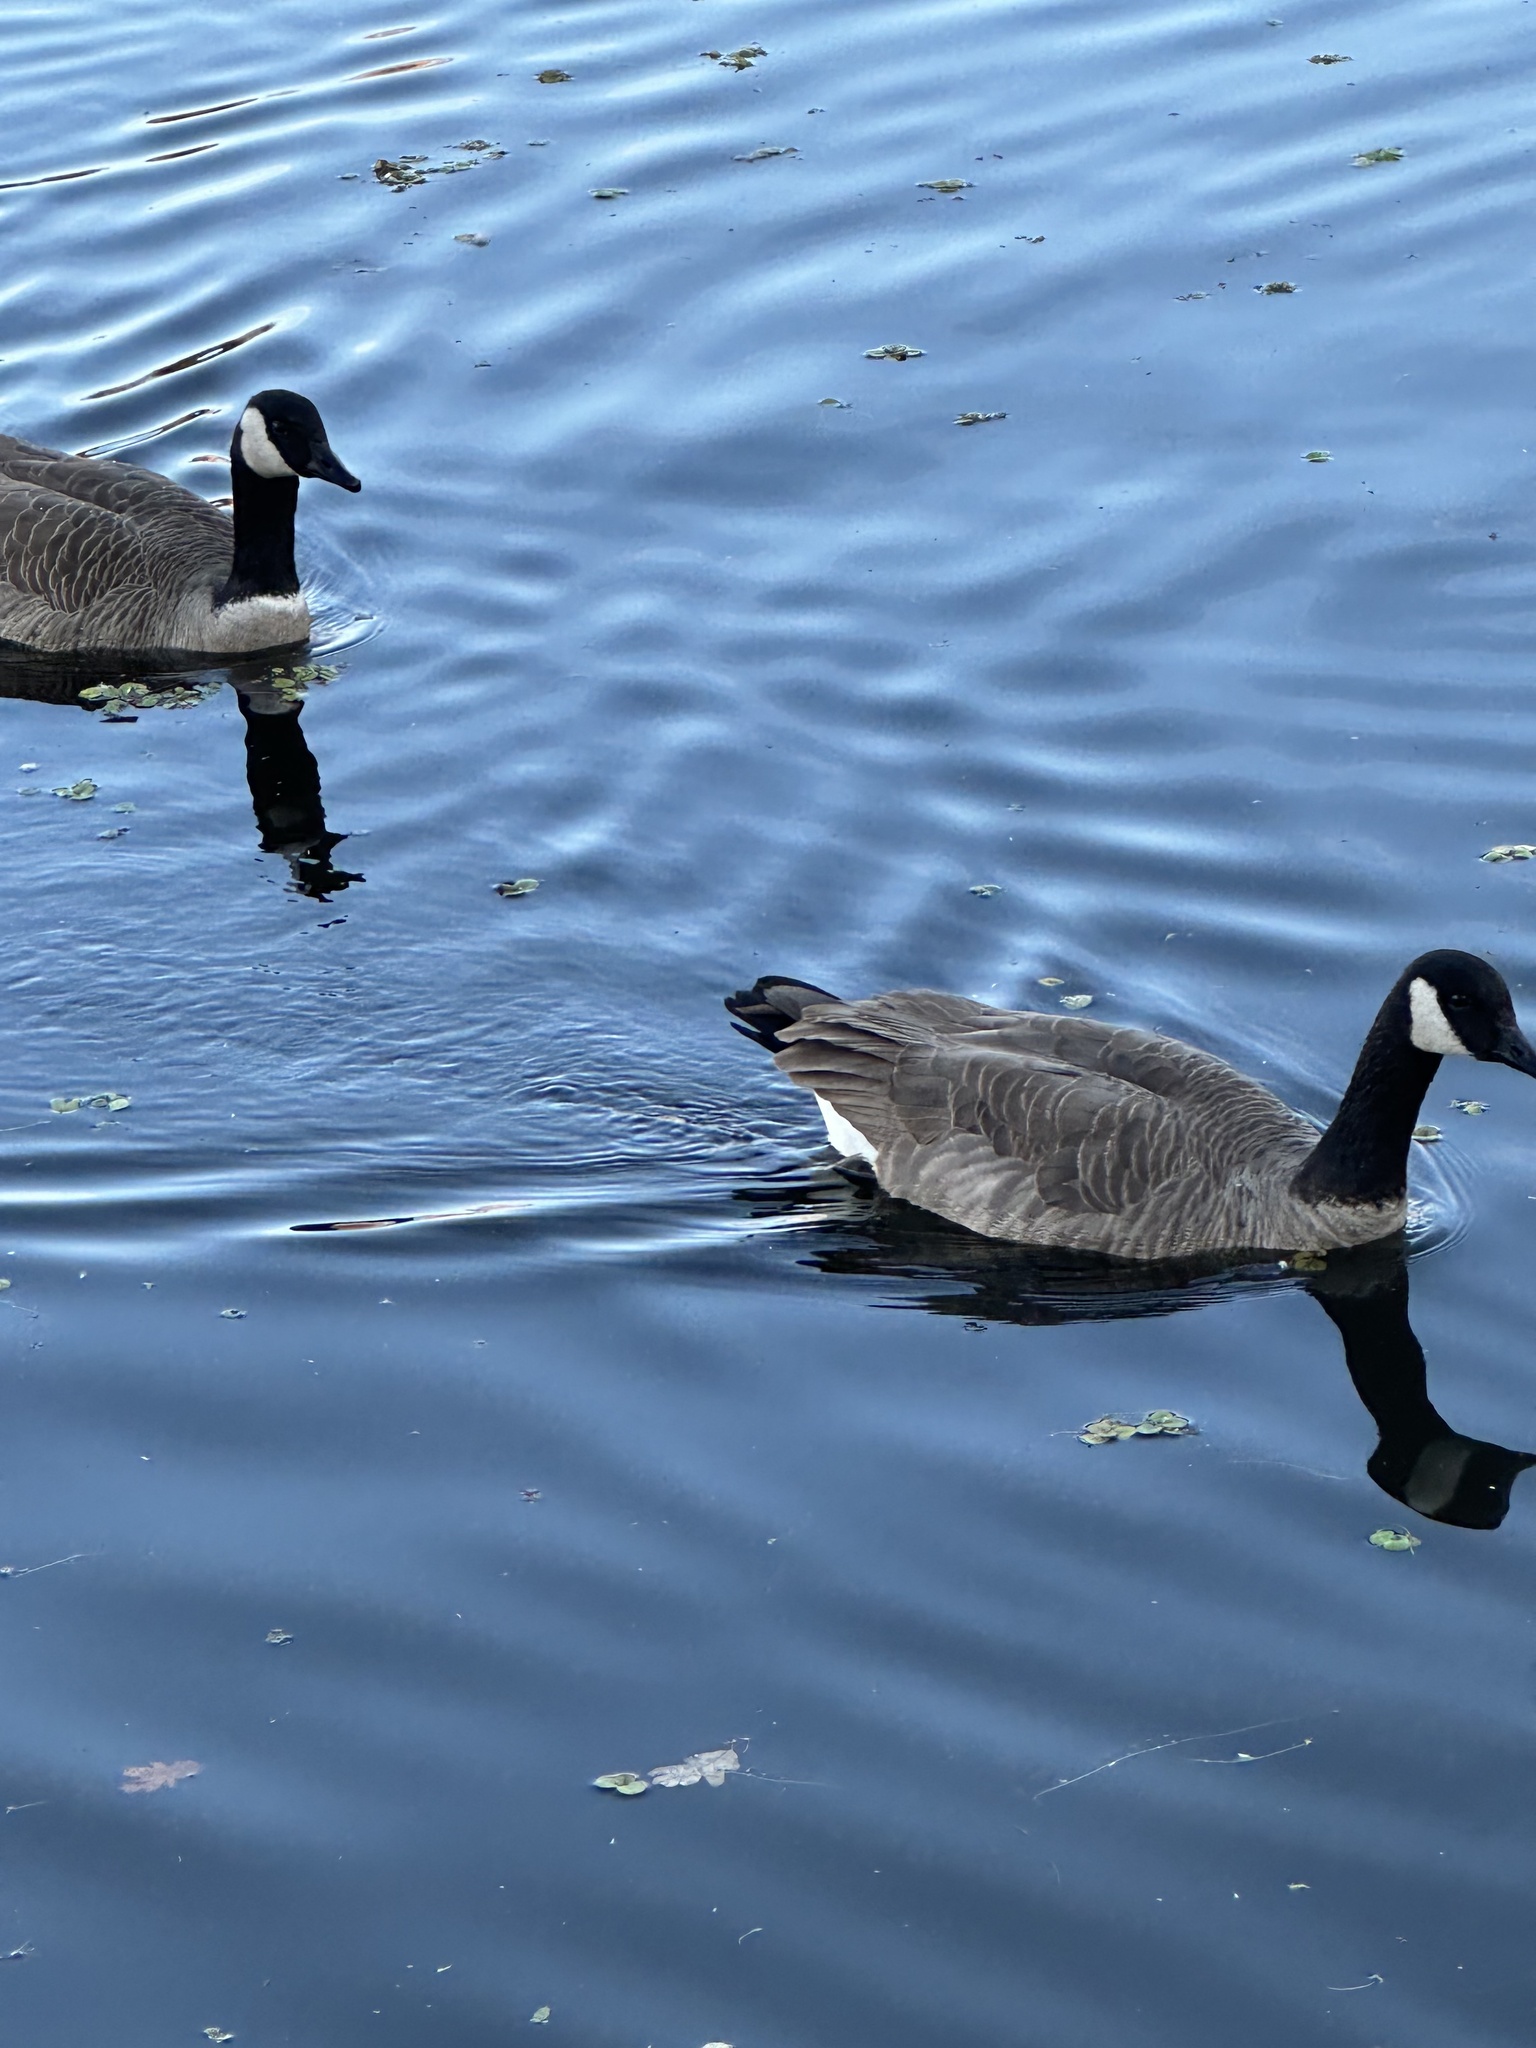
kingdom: Animalia
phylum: Chordata
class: Aves
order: Anseriformes
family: Anatidae
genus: Branta
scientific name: Branta canadensis
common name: Canada goose
